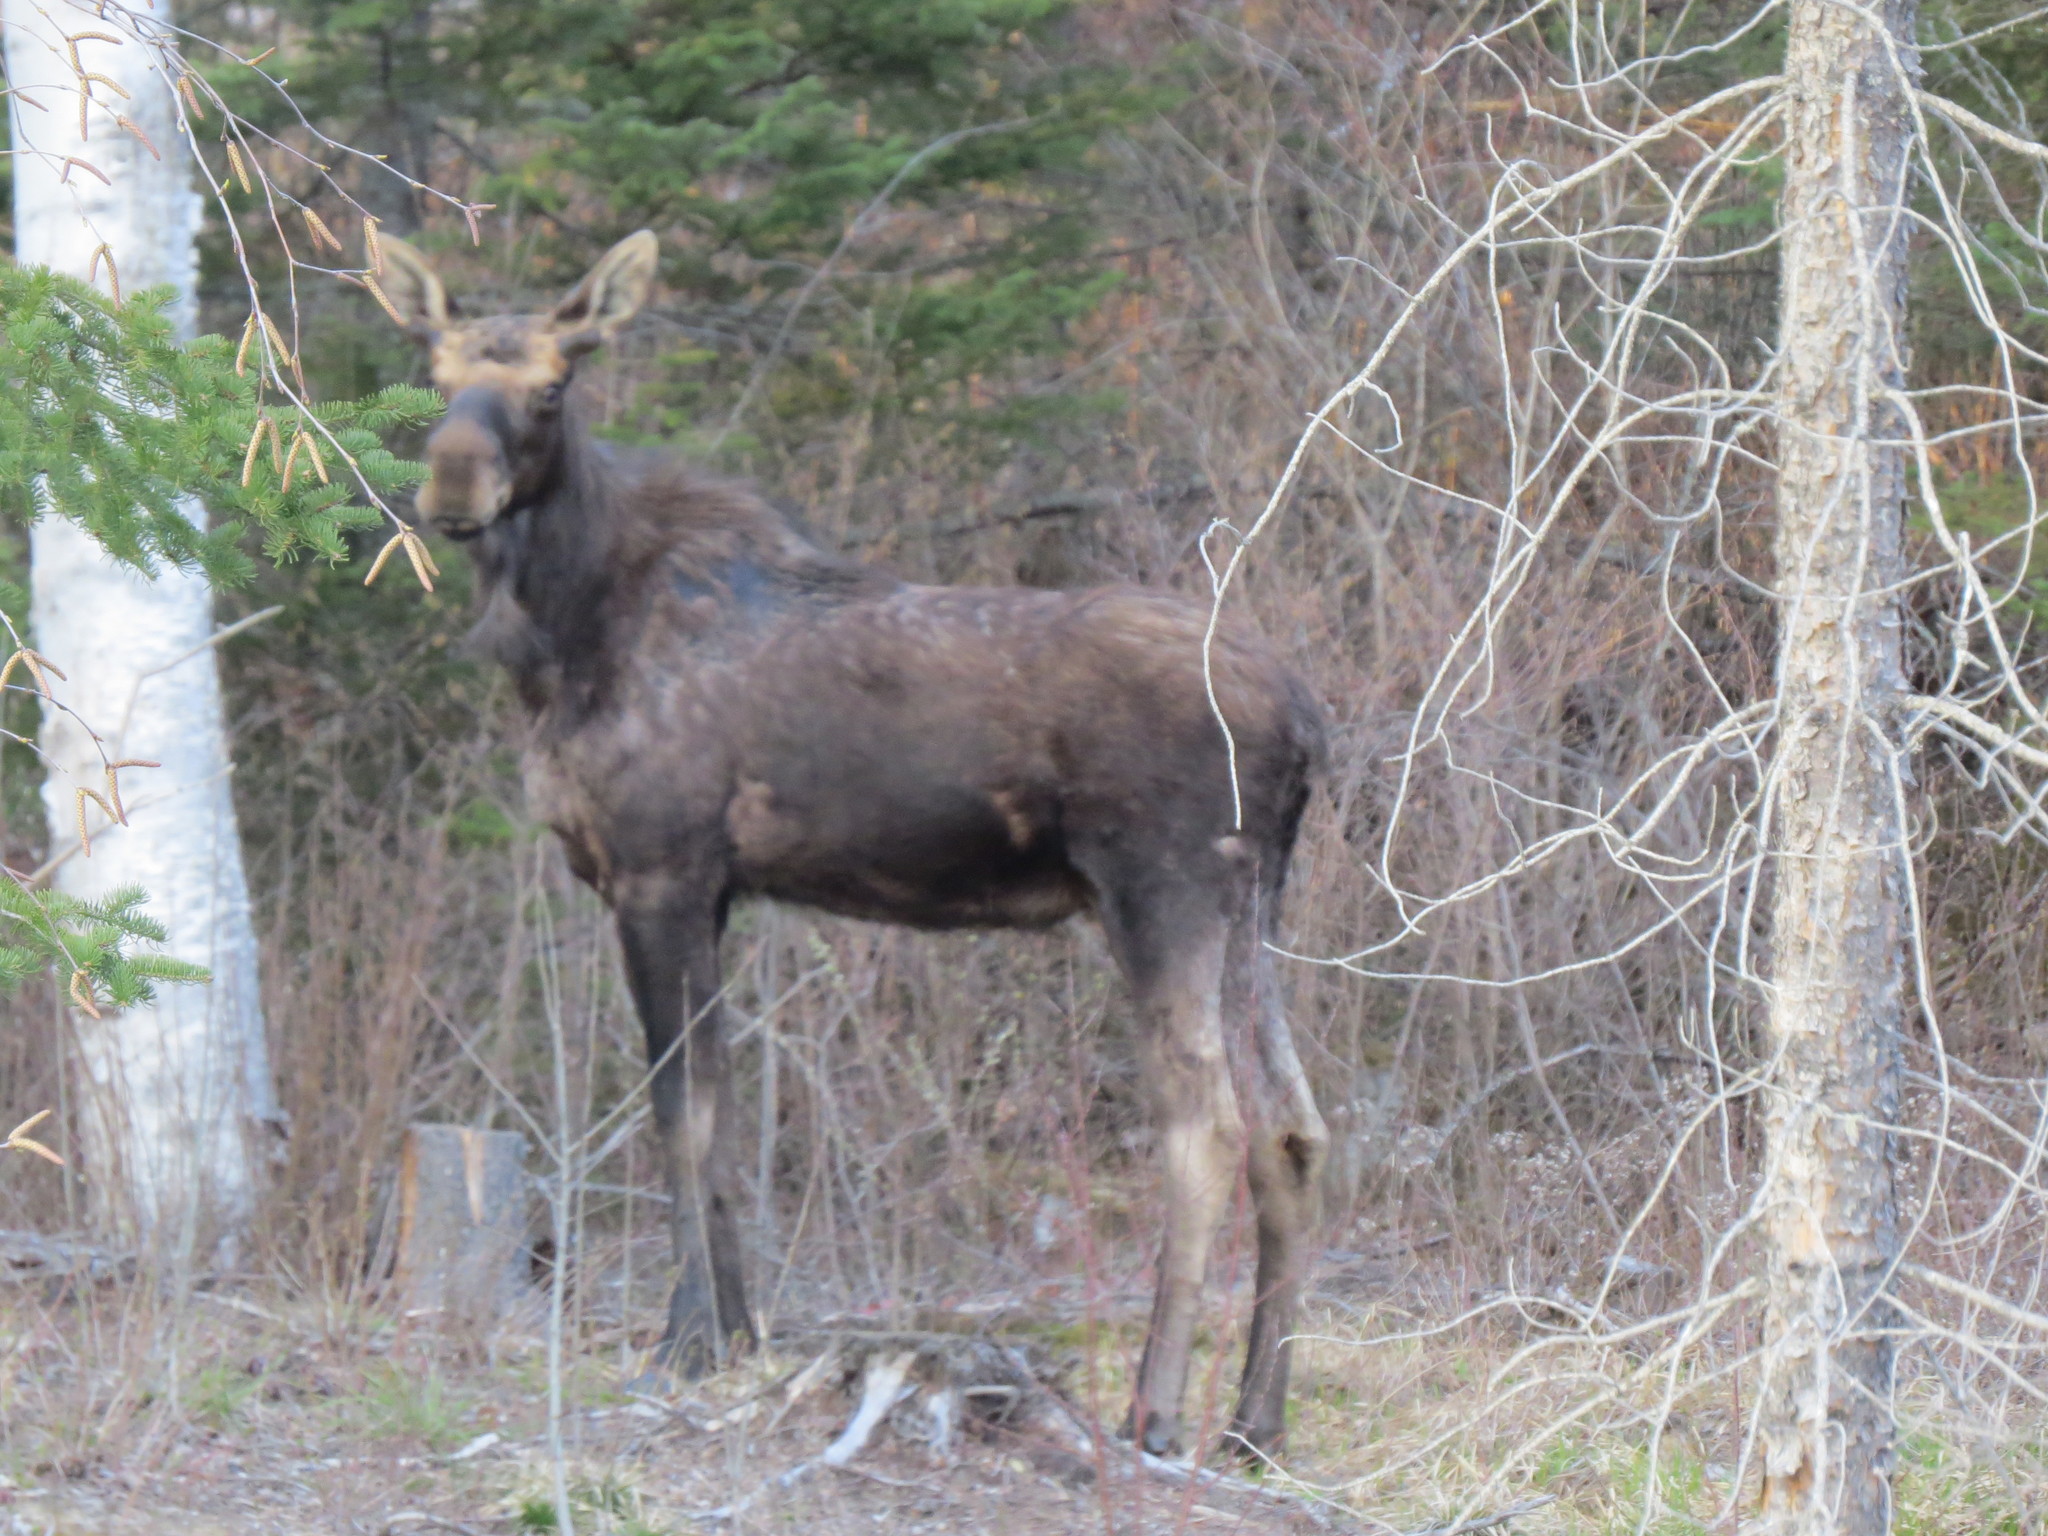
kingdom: Animalia
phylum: Chordata
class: Mammalia
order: Artiodactyla
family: Cervidae
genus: Alces
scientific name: Alces alces
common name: Moose
